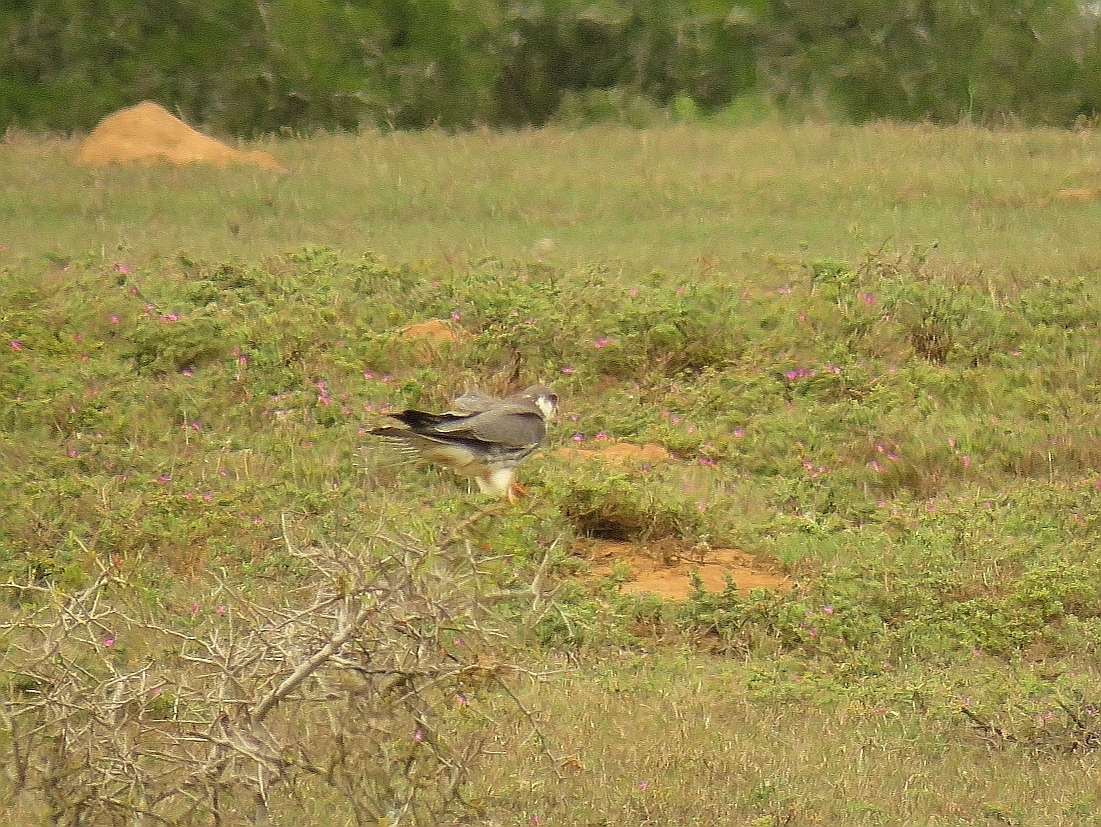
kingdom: Animalia
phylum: Chordata
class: Aves
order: Falconiformes
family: Falconidae
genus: Falco
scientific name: Falco amurensis
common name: Amur falcon
